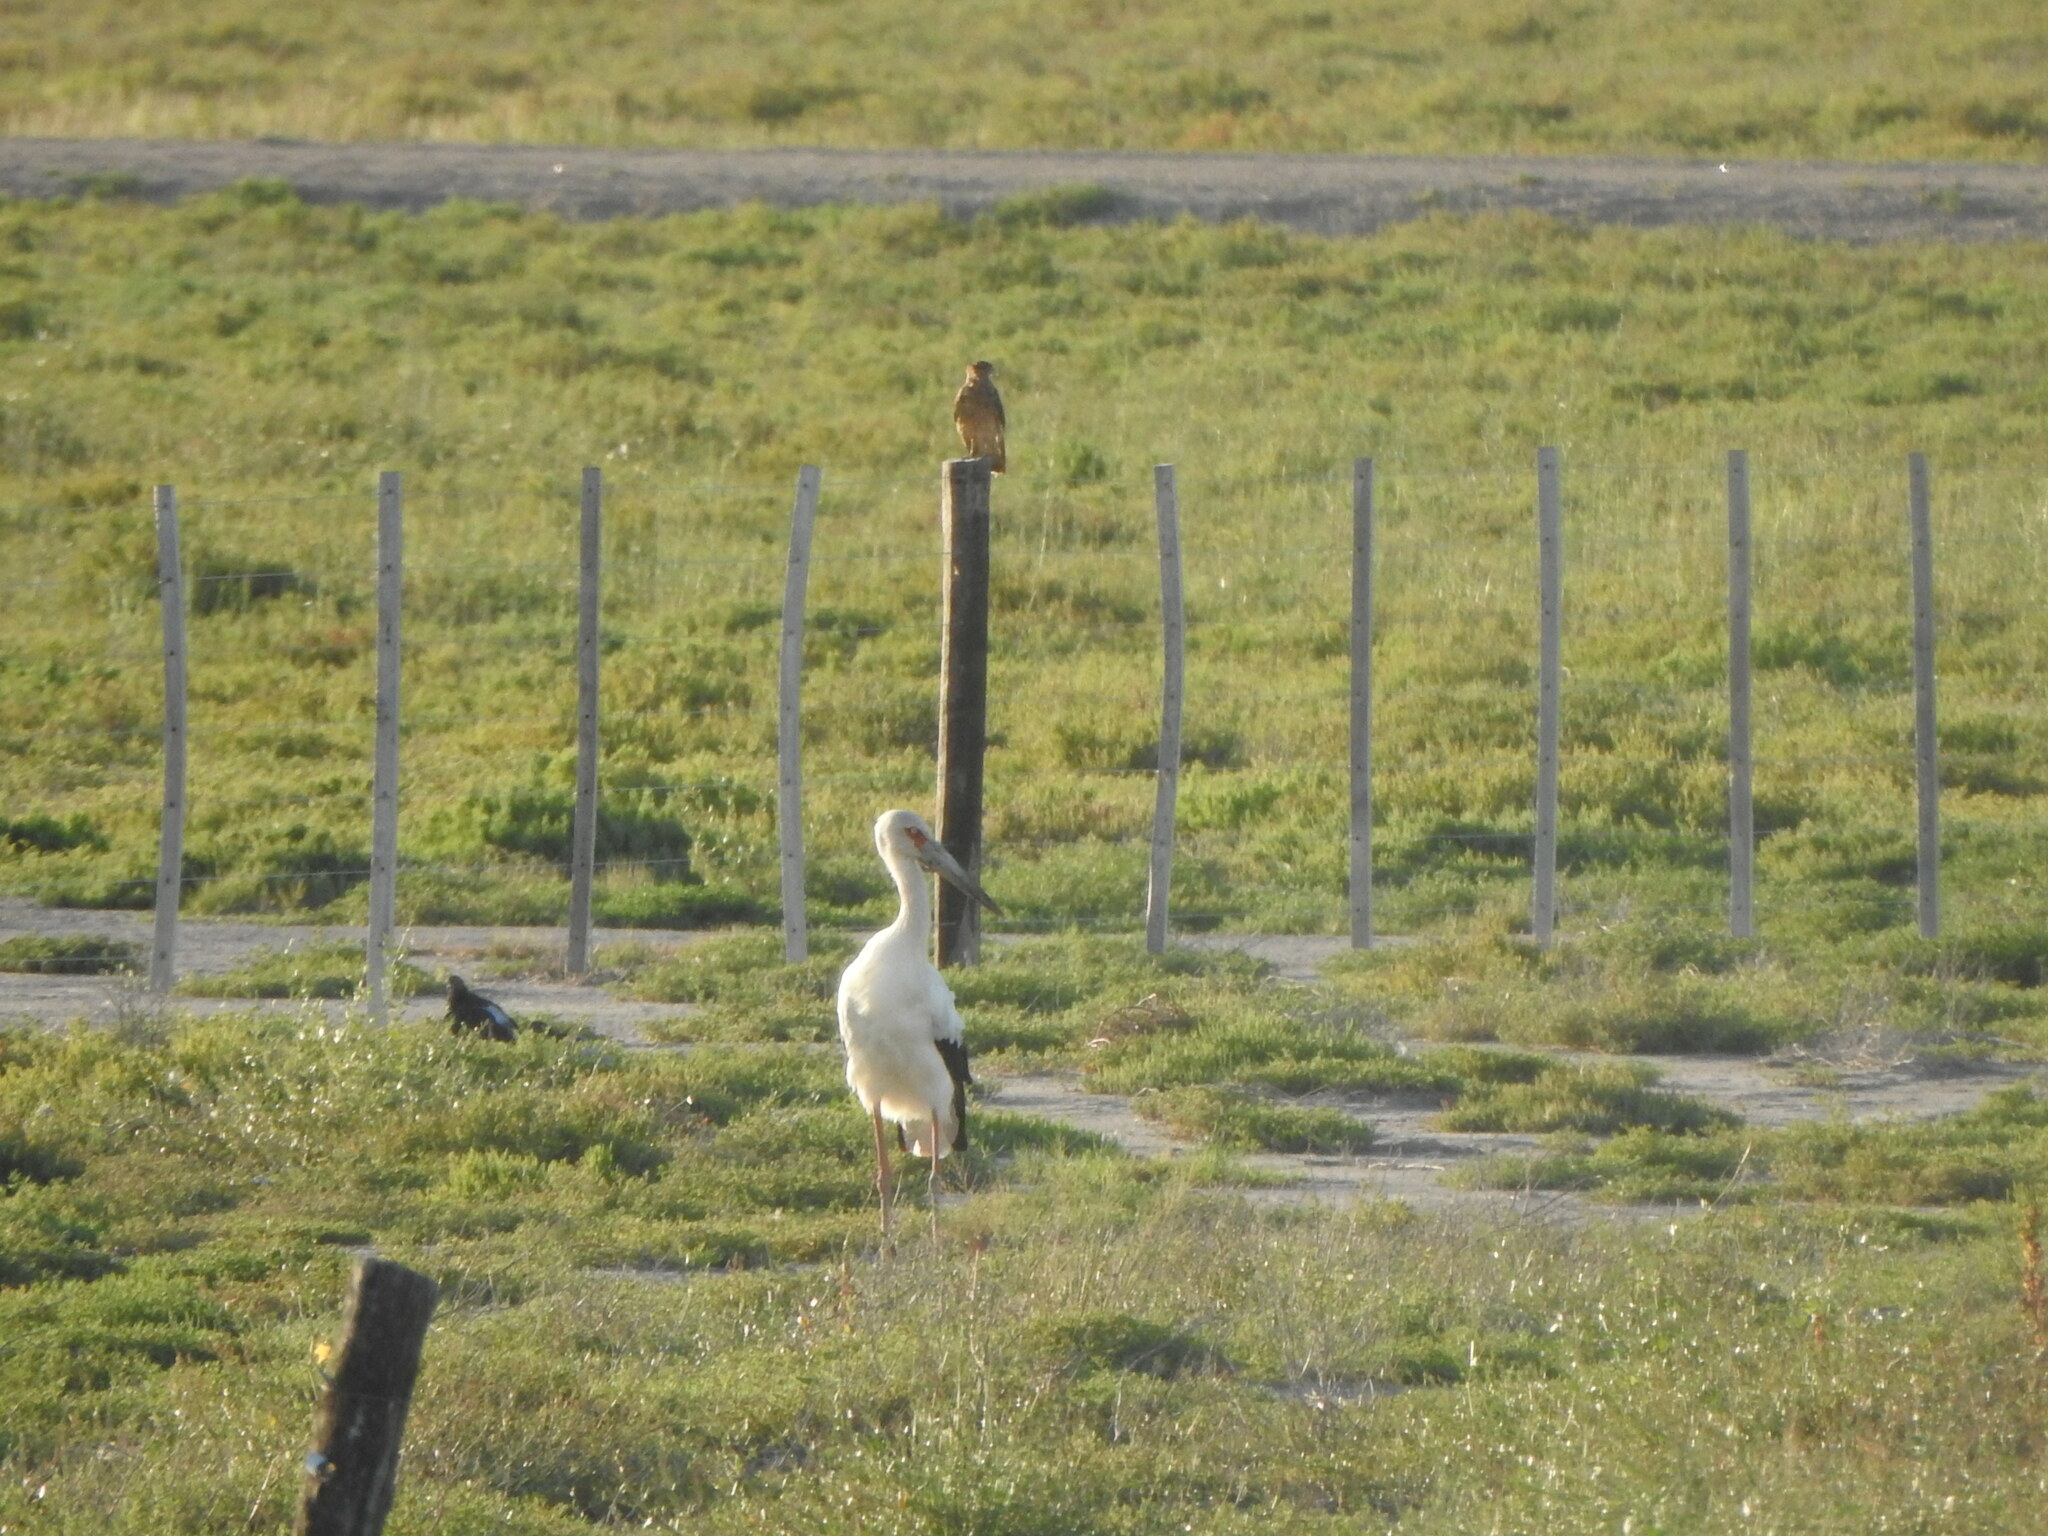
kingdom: Animalia
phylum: Chordata
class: Aves
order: Ciconiiformes
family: Ciconiidae
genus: Ciconia
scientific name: Ciconia maguari
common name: Maguari stork
